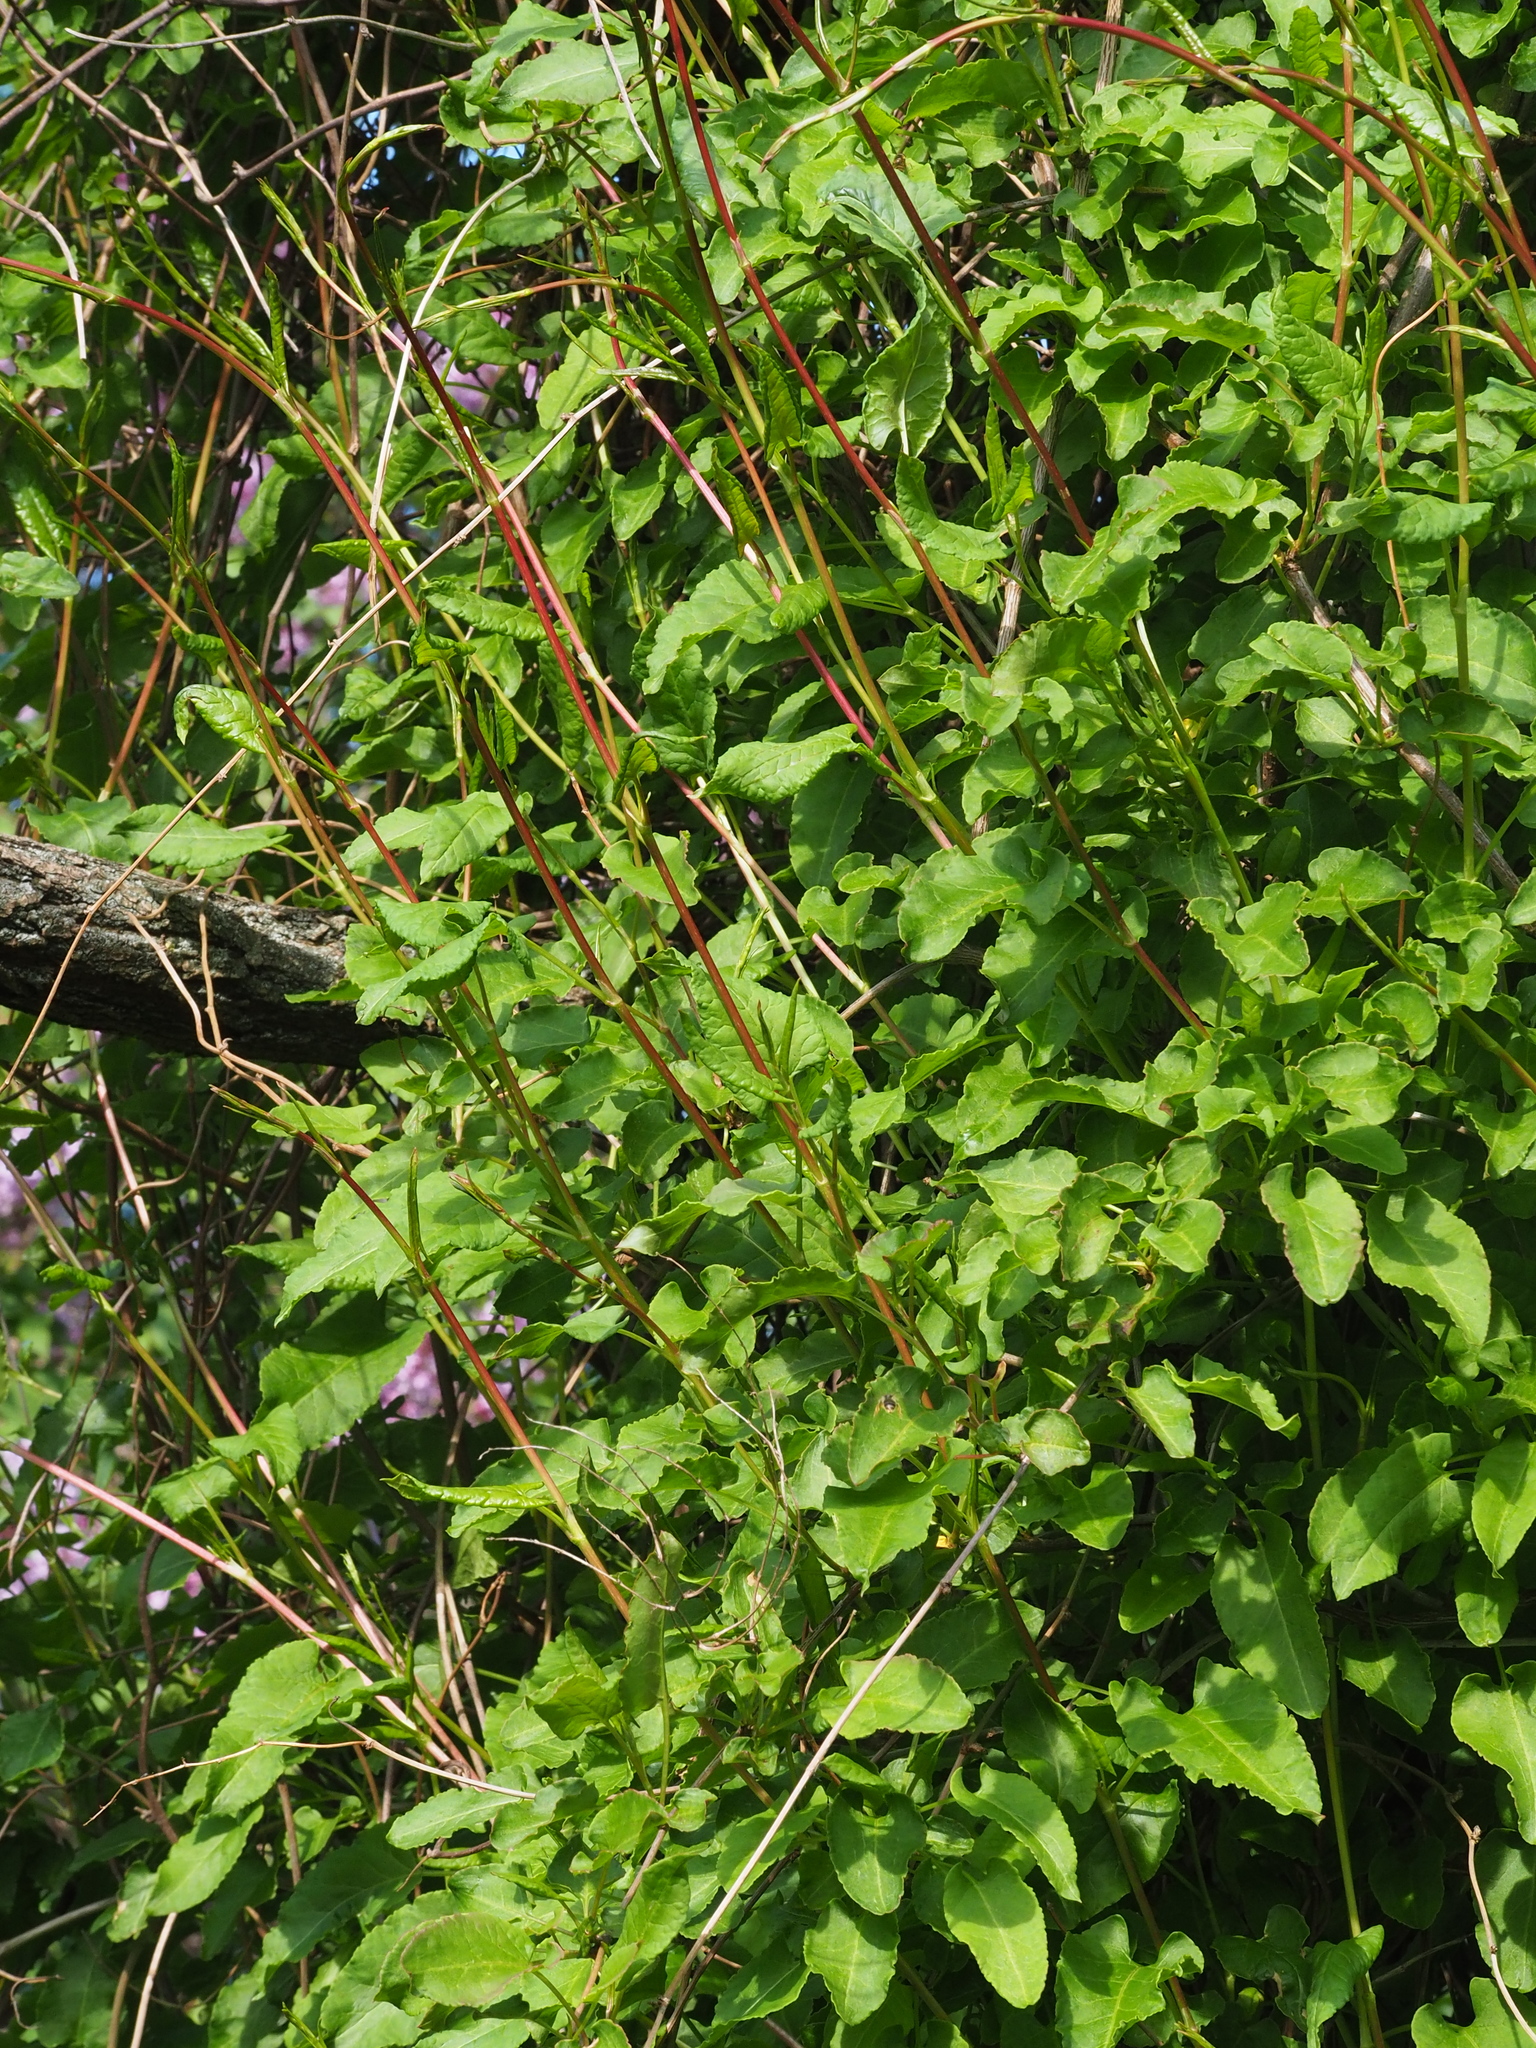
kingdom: Plantae
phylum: Tracheophyta
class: Magnoliopsida
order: Caryophyllales
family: Polygonaceae
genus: Fallopia
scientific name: Fallopia baldschuanica
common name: Russian-vine
